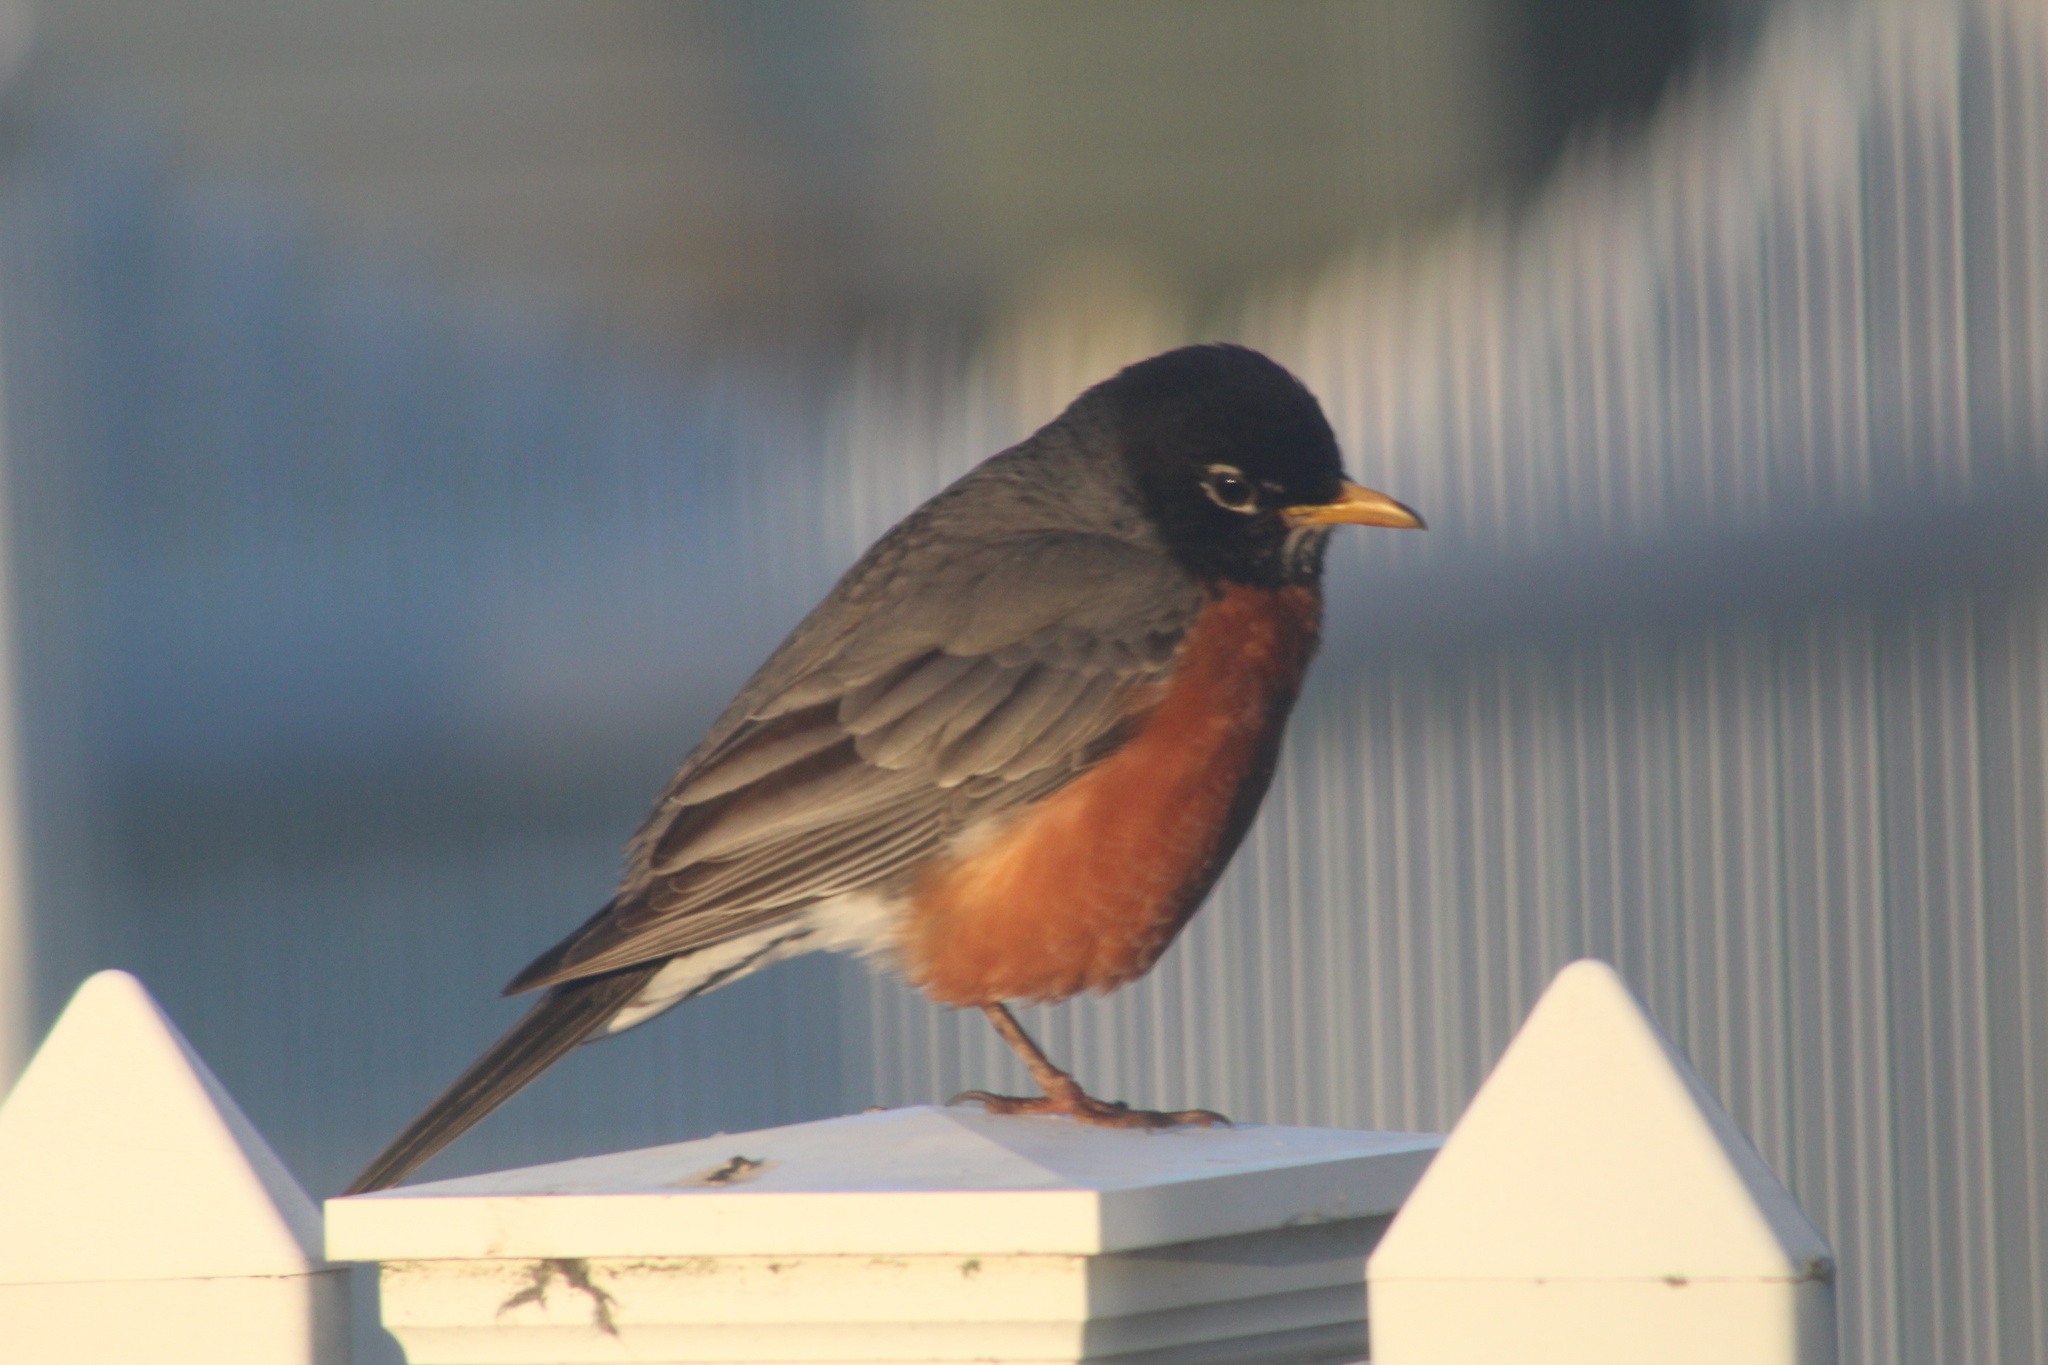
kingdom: Animalia
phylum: Chordata
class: Aves
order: Passeriformes
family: Turdidae
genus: Turdus
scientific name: Turdus migratorius
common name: American robin
